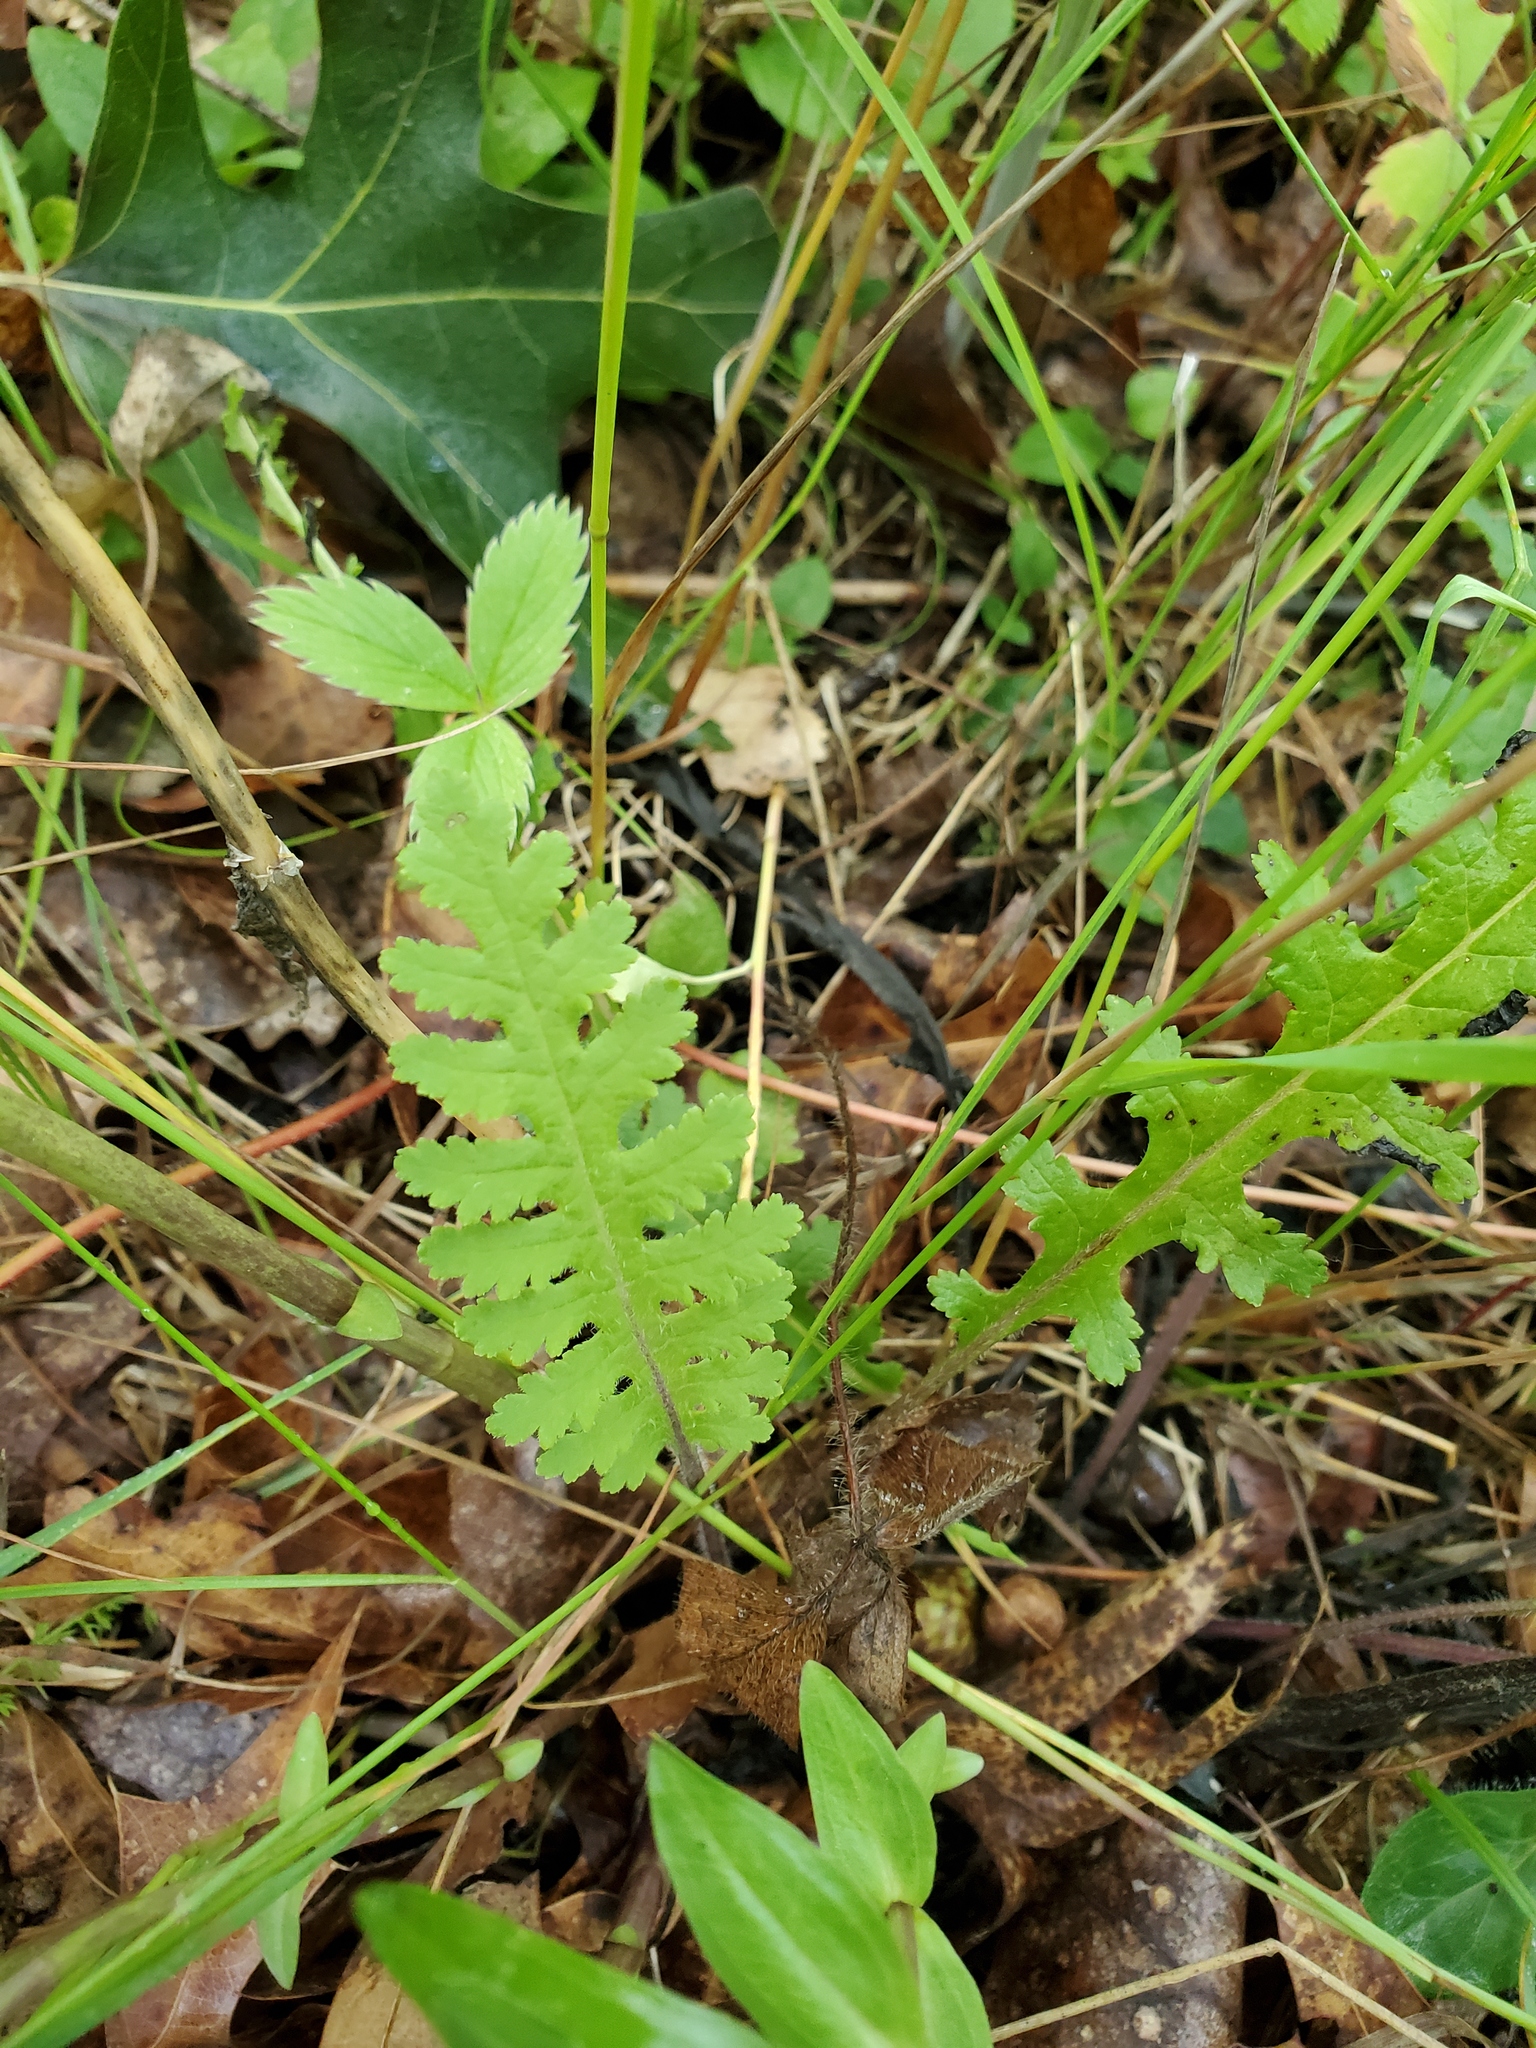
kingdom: Plantae
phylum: Tracheophyta
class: Magnoliopsida
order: Lamiales
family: Orobanchaceae
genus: Pedicularis
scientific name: Pedicularis canadensis
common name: Early lousewort
